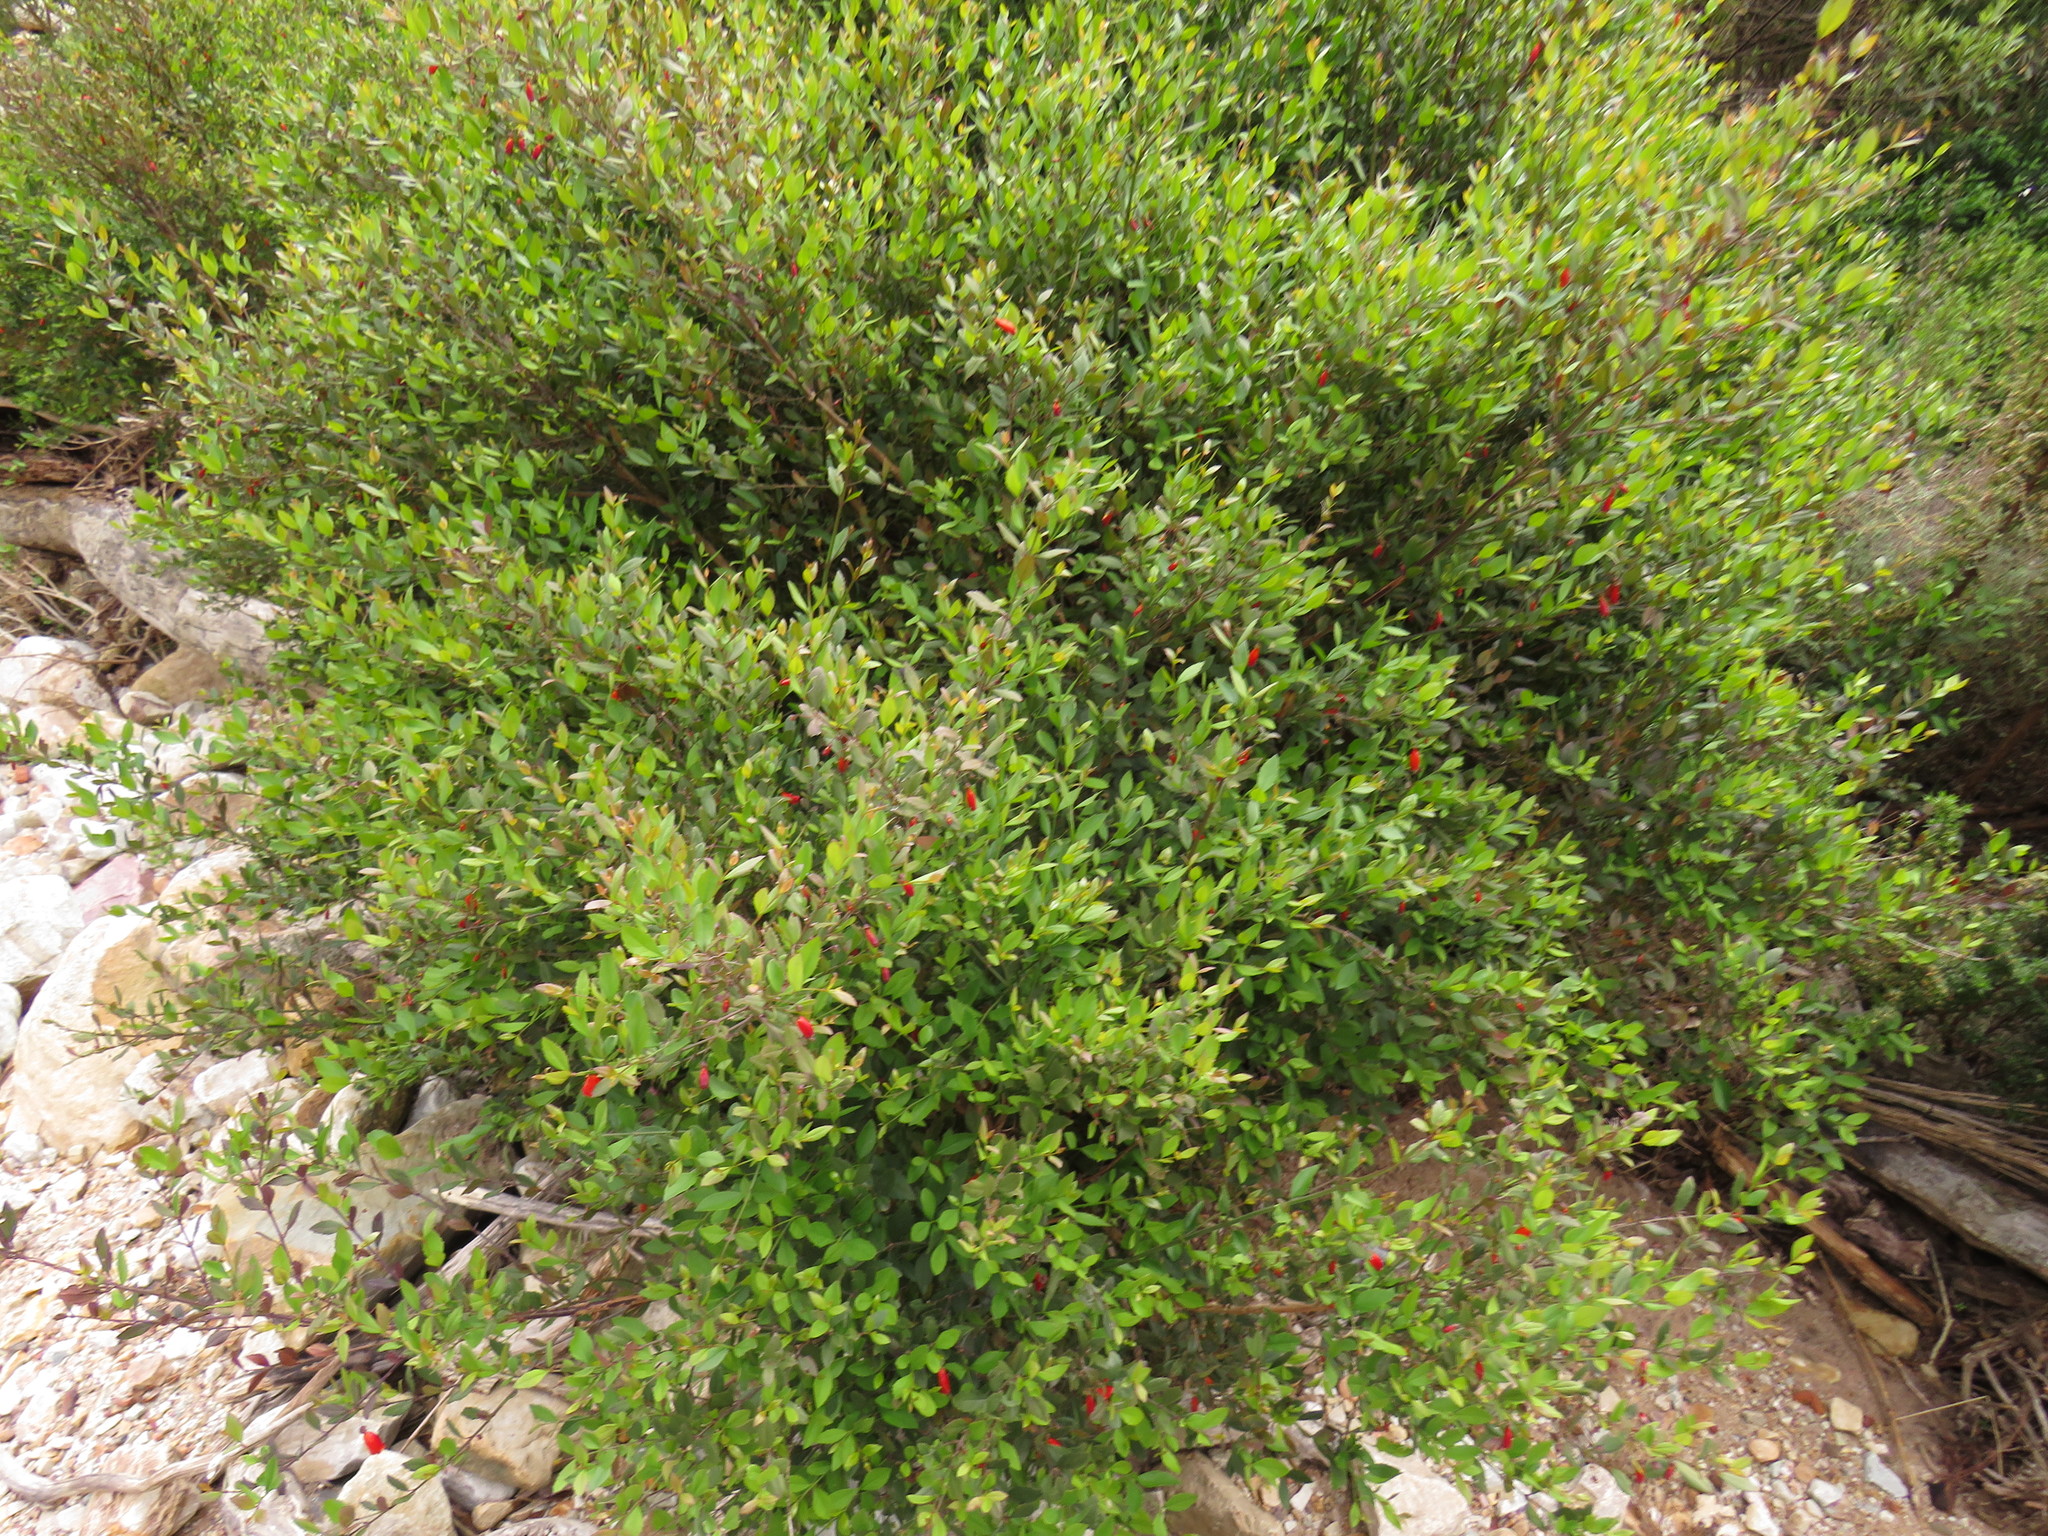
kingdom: Plantae
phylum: Tracheophyta
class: Magnoliopsida
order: Lamiales
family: Stilbaceae
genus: Halleria
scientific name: Halleria elliptica
